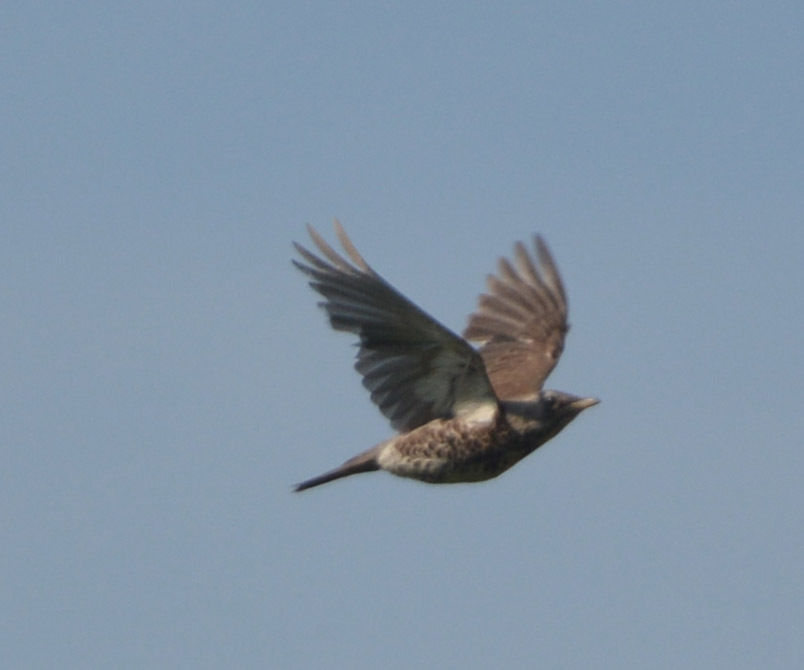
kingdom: Animalia
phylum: Chordata
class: Aves
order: Passeriformes
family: Turdidae
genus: Turdus
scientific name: Turdus pilaris
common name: Fieldfare
